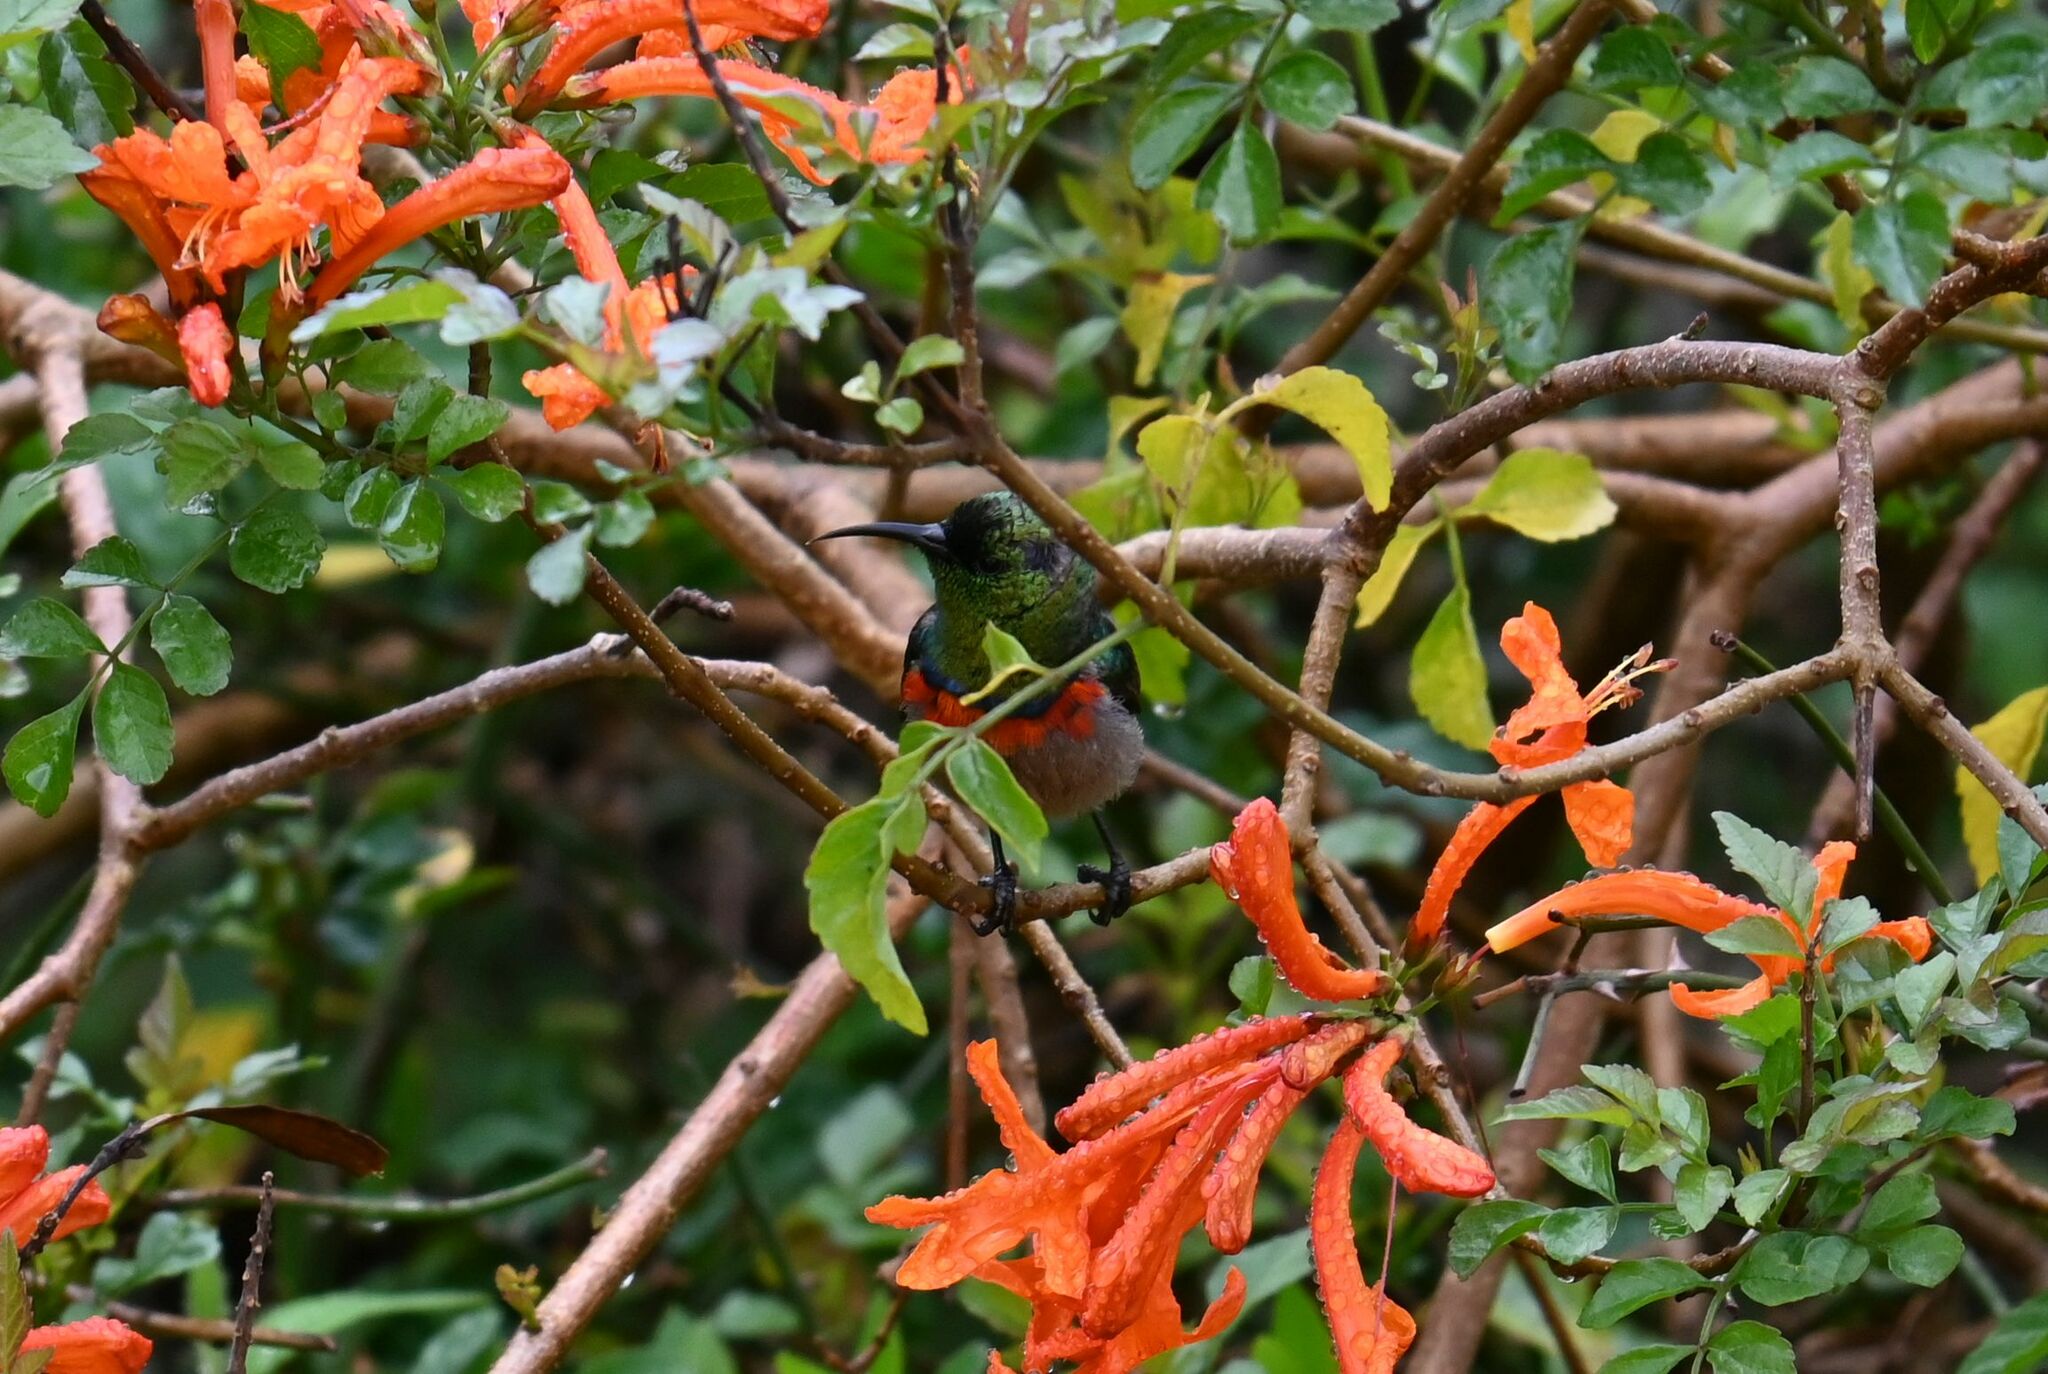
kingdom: Animalia
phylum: Chordata
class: Aves
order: Passeriformes
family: Nectariniidae
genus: Cinnyris
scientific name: Cinnyris chalybeus
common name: Southern double-collared sunbird
